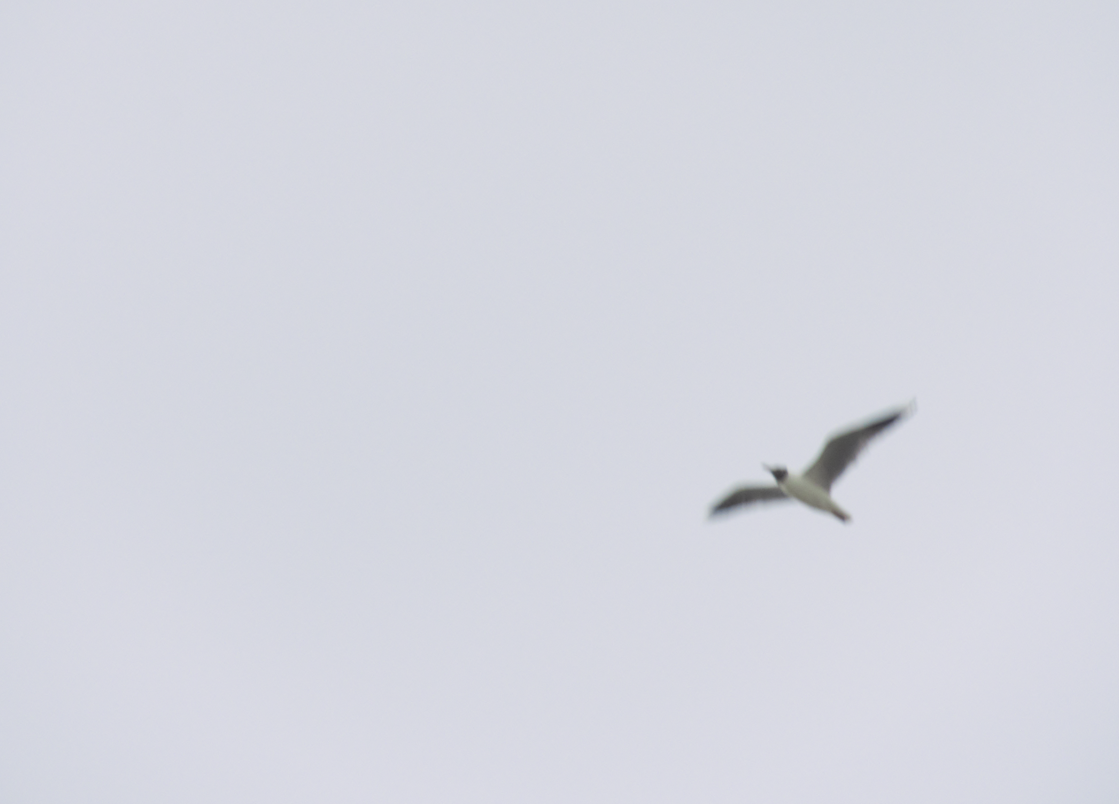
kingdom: Animalia
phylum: Chordata
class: Aves
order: Charadriiformes
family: Laridae
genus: Chroicocephalus
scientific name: Chroicocephalus maculipennis
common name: Brown-hooded gull
